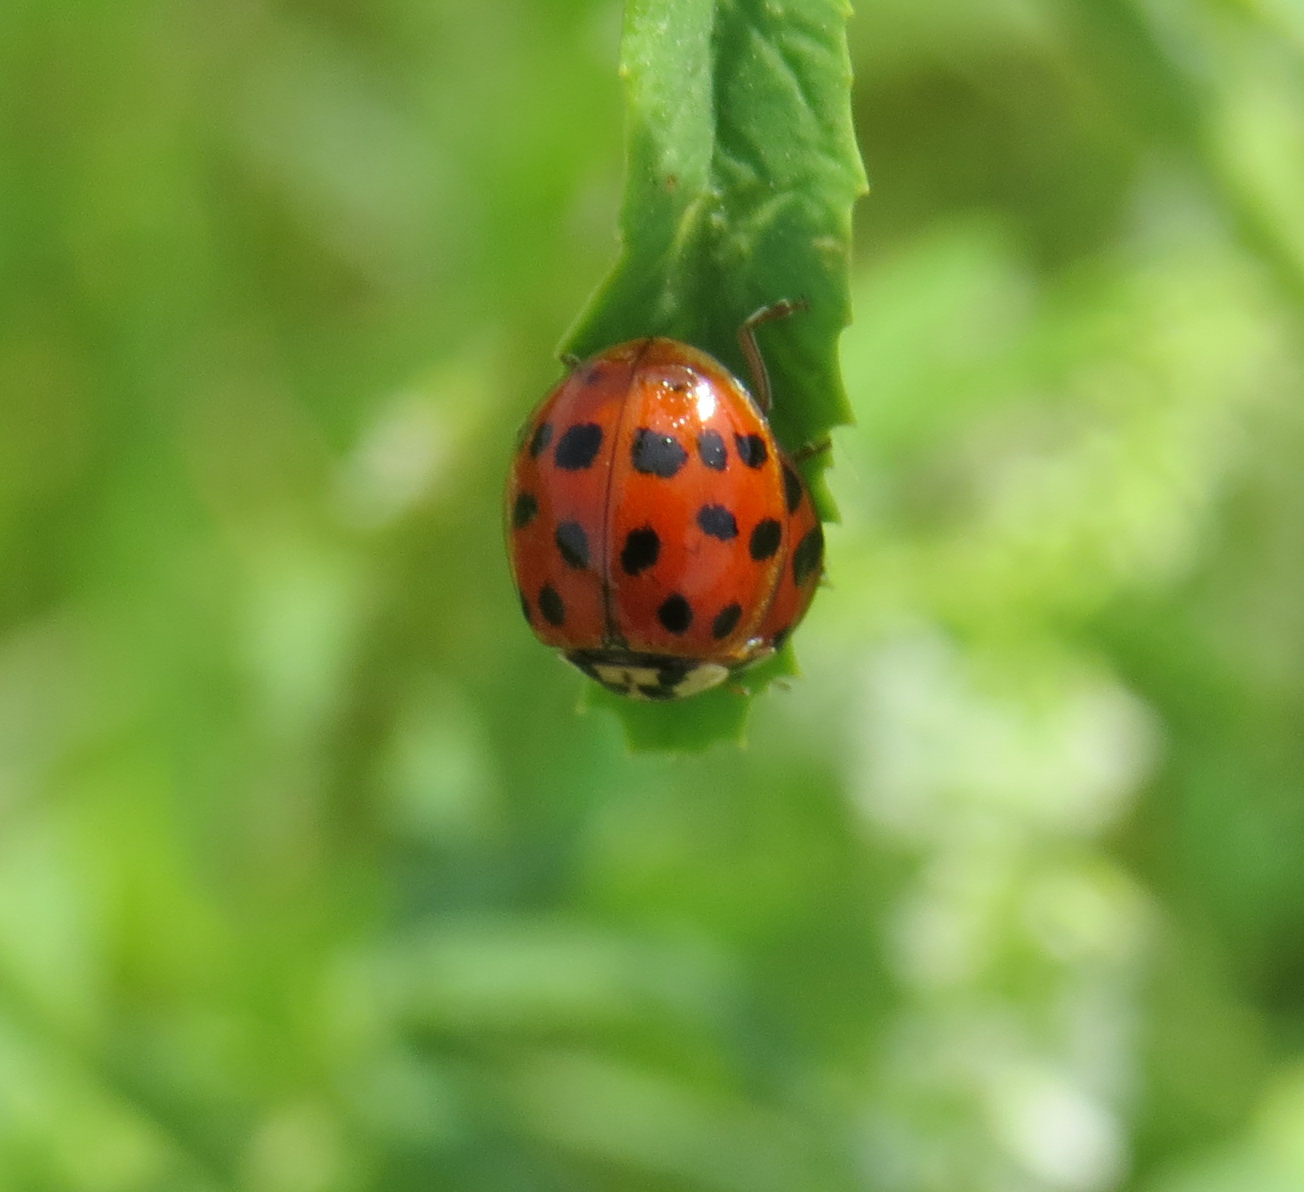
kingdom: Animalia
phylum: Arthropoda
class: Insecta
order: Coleoptera
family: Coccinellidae
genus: Harmonia
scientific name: Harmonia axyridis
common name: Harlequin ladybird
